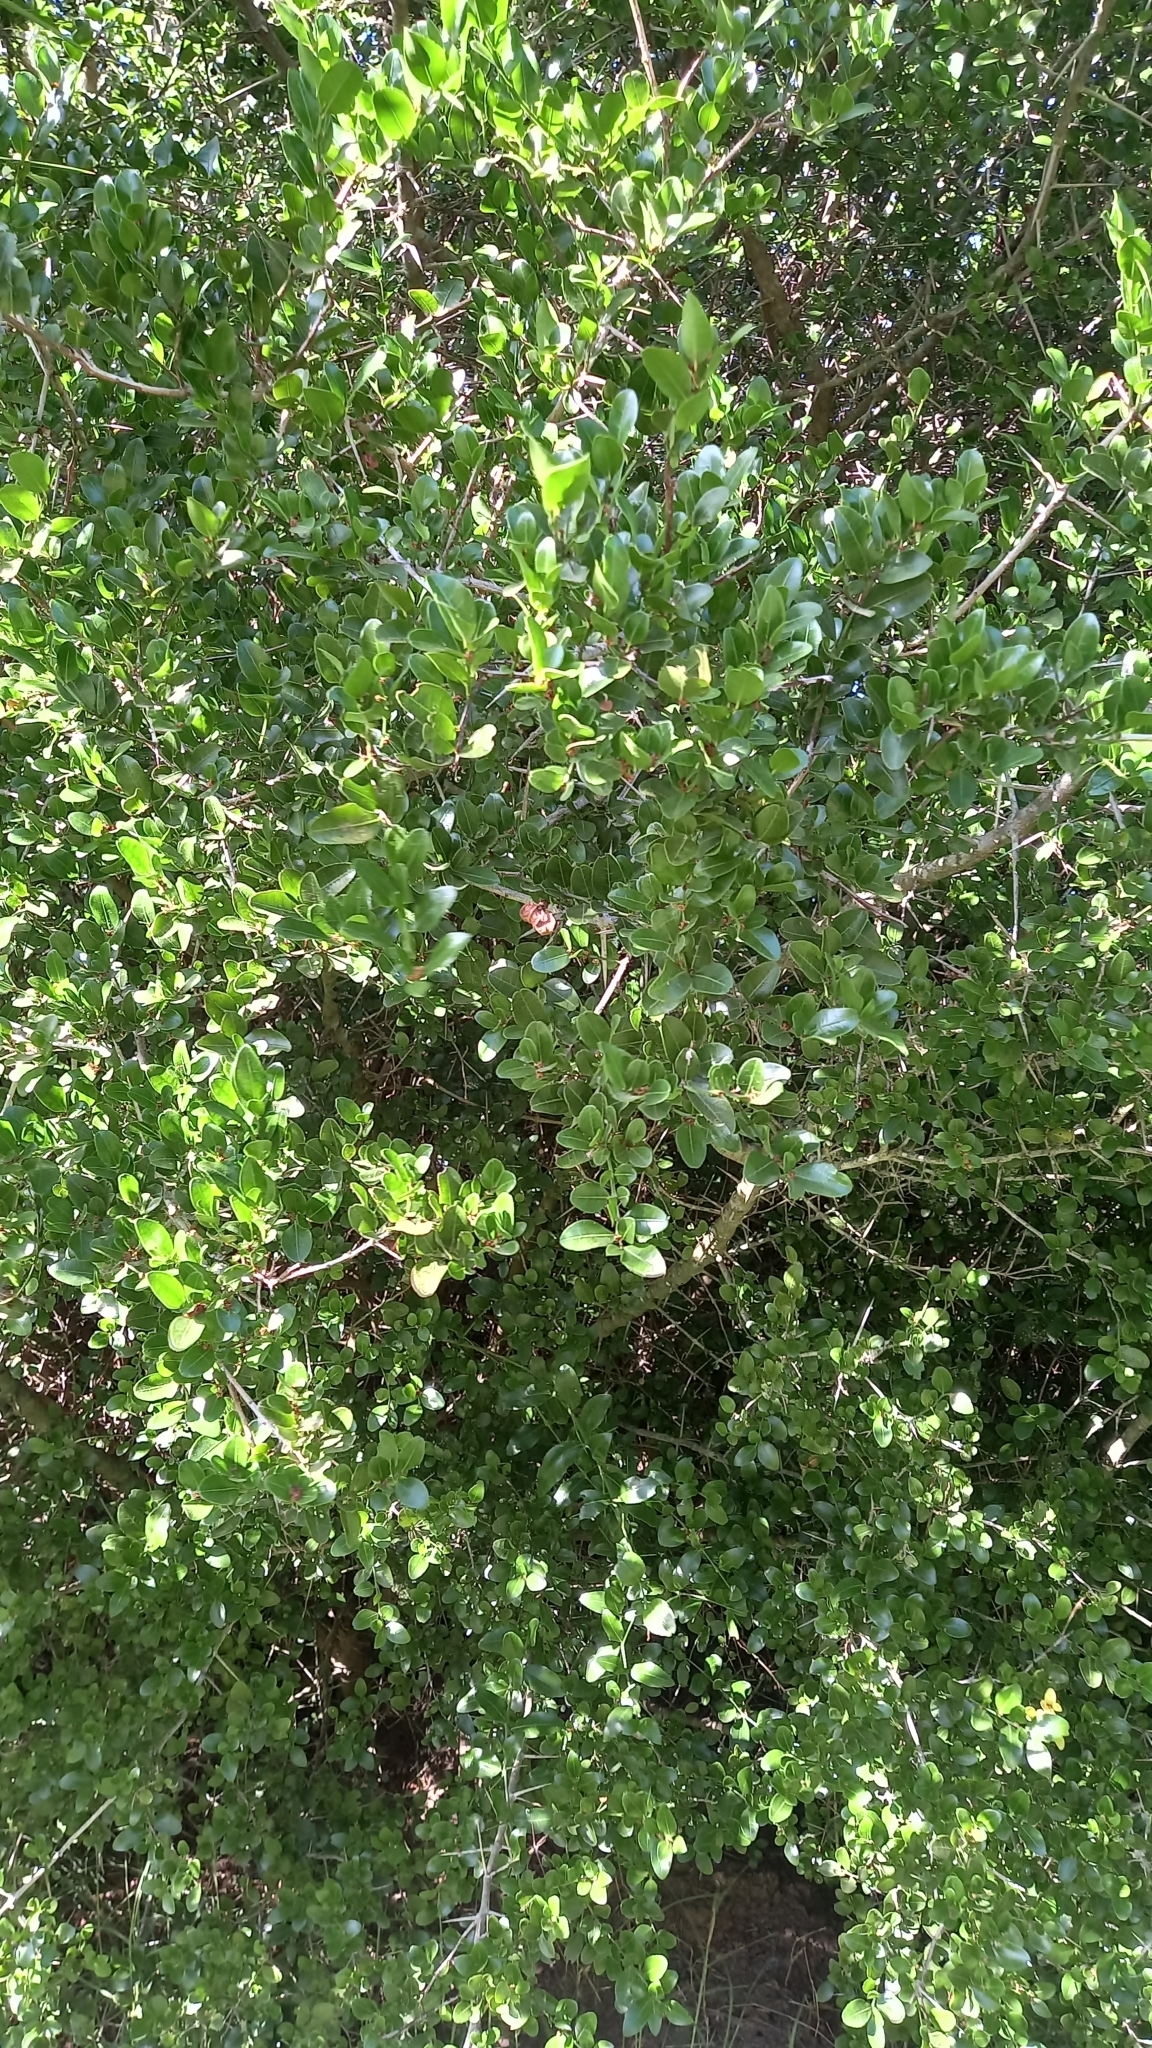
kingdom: Plantae
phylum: Tracheophyta
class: Magnoliopsida
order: Rosales
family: Rhamnaceae
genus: Scutia
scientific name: Scutia buxifolia
